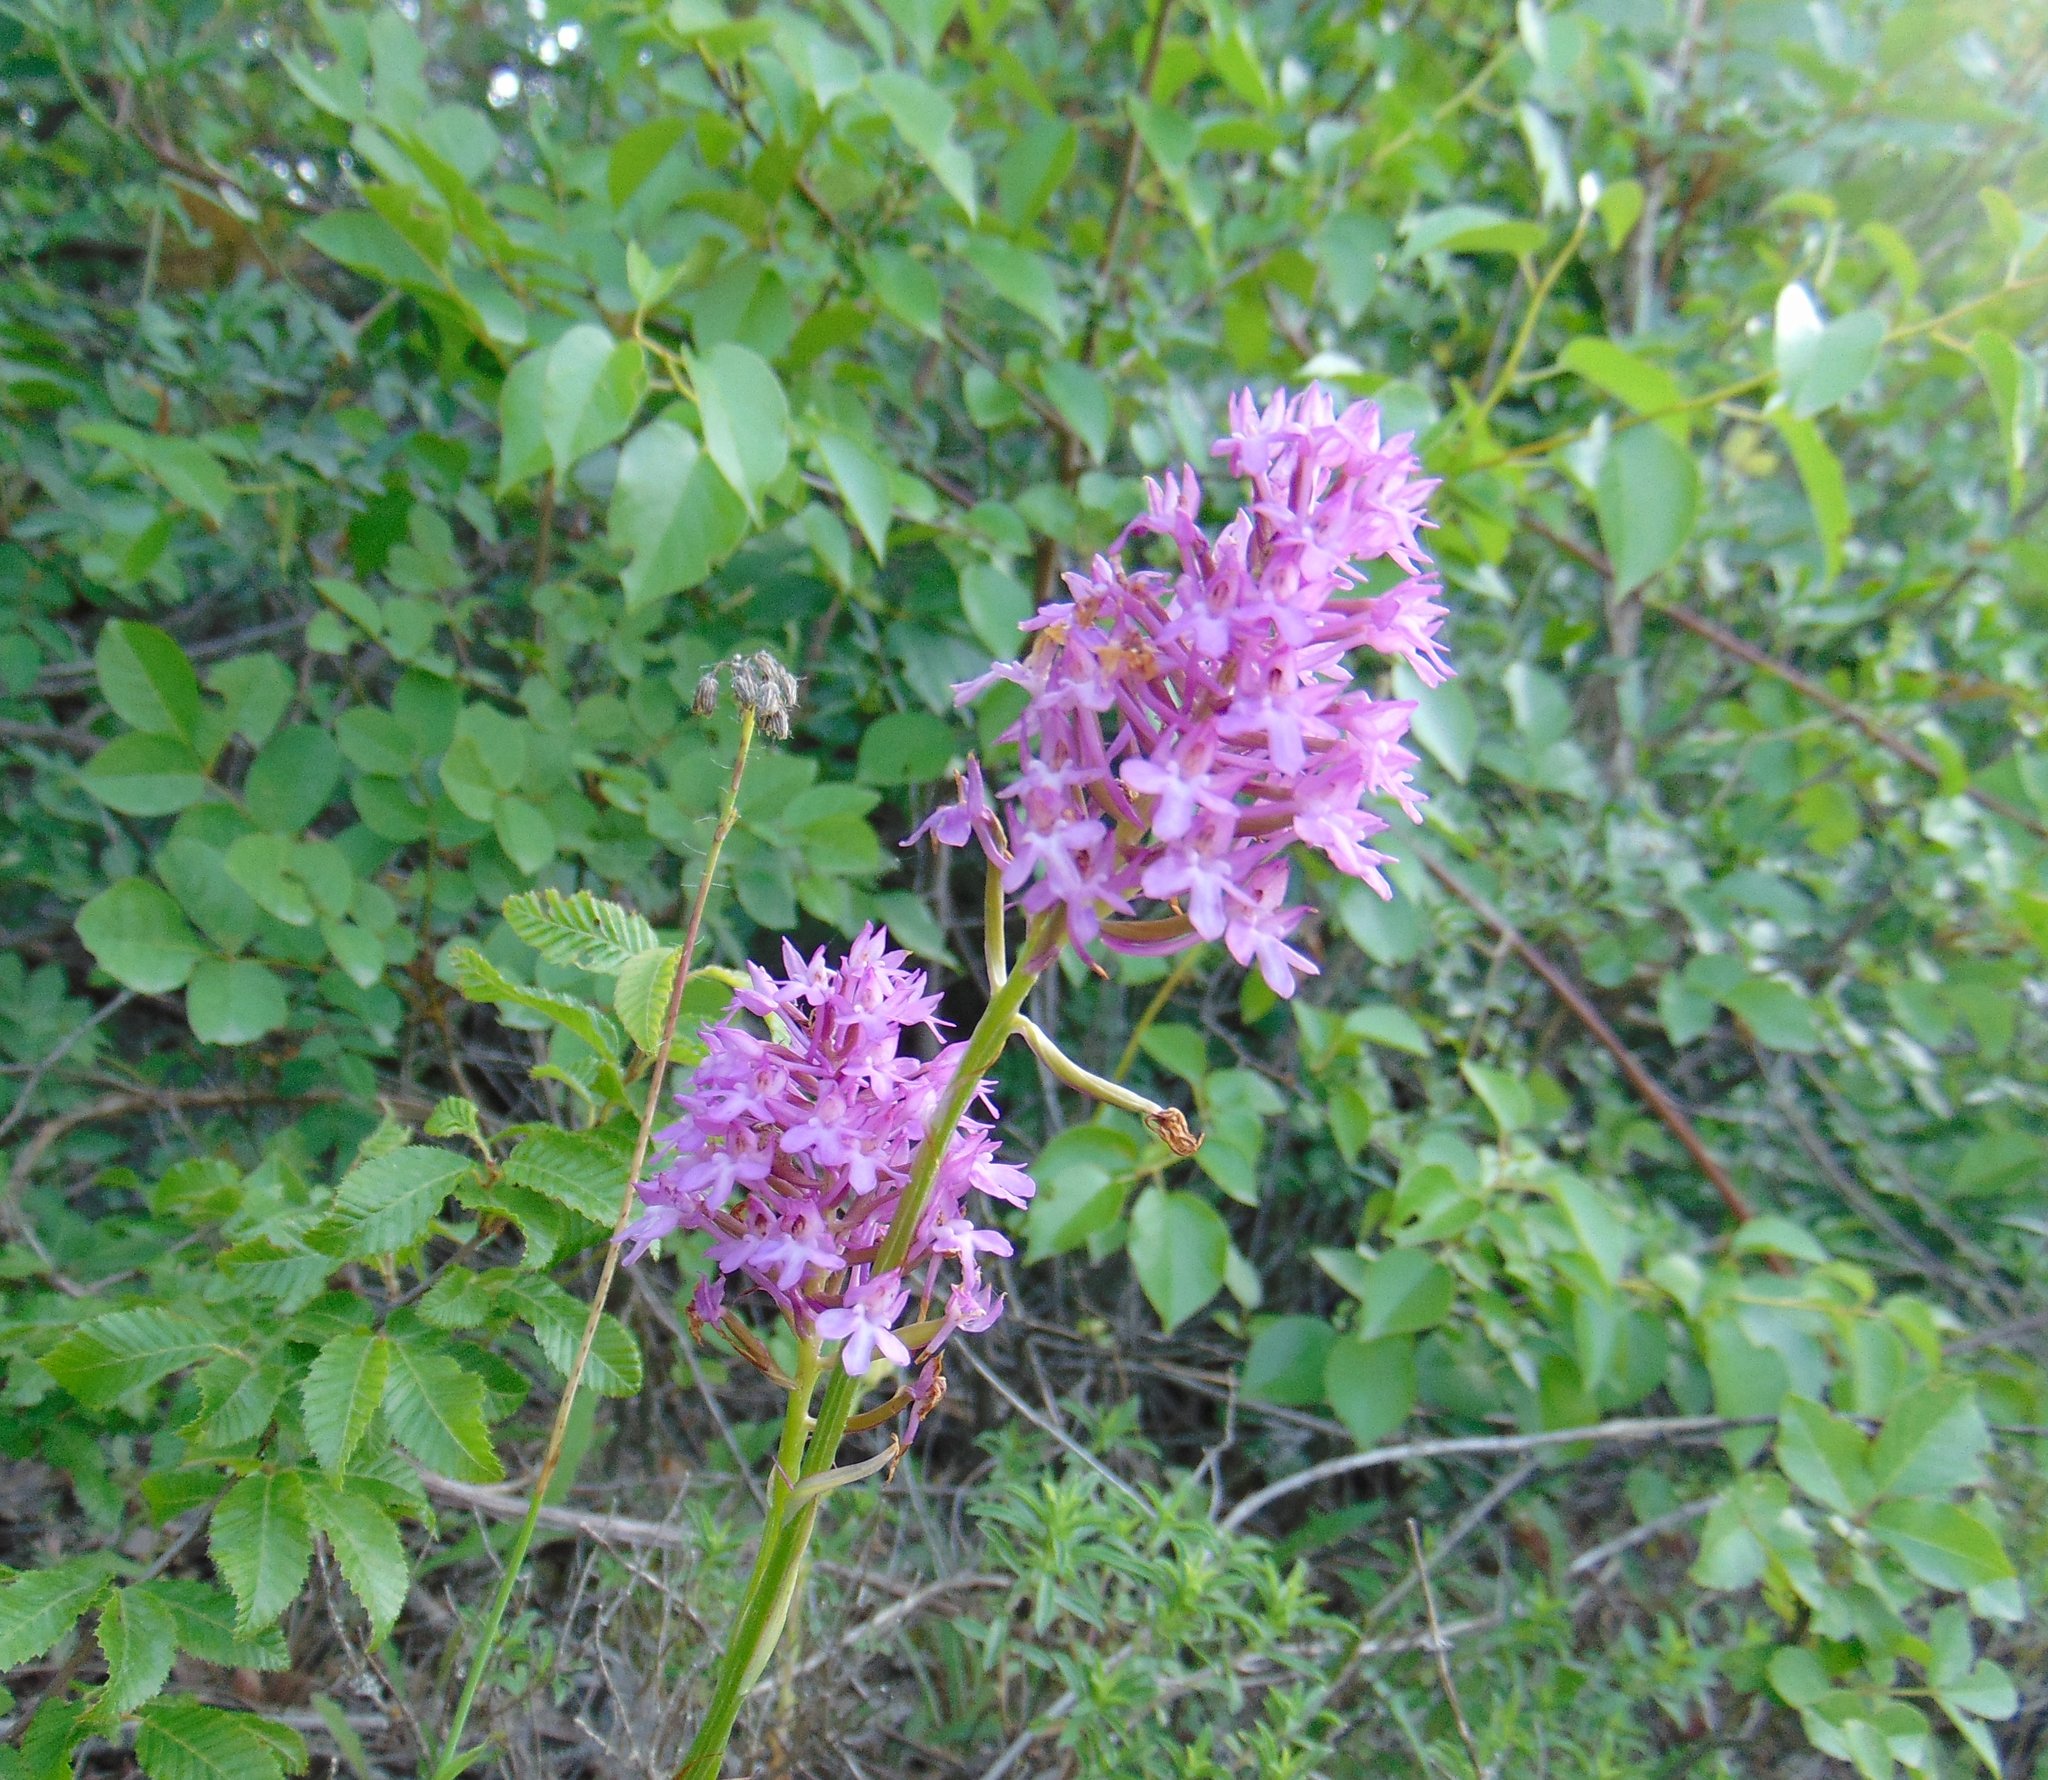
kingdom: Plantae
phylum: Tracheophyta
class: Liliopsida
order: Asparagales
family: Orchidaceae
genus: Anacamptis
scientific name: Anacamptis pyramidalis
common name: Pyramidal orchid
